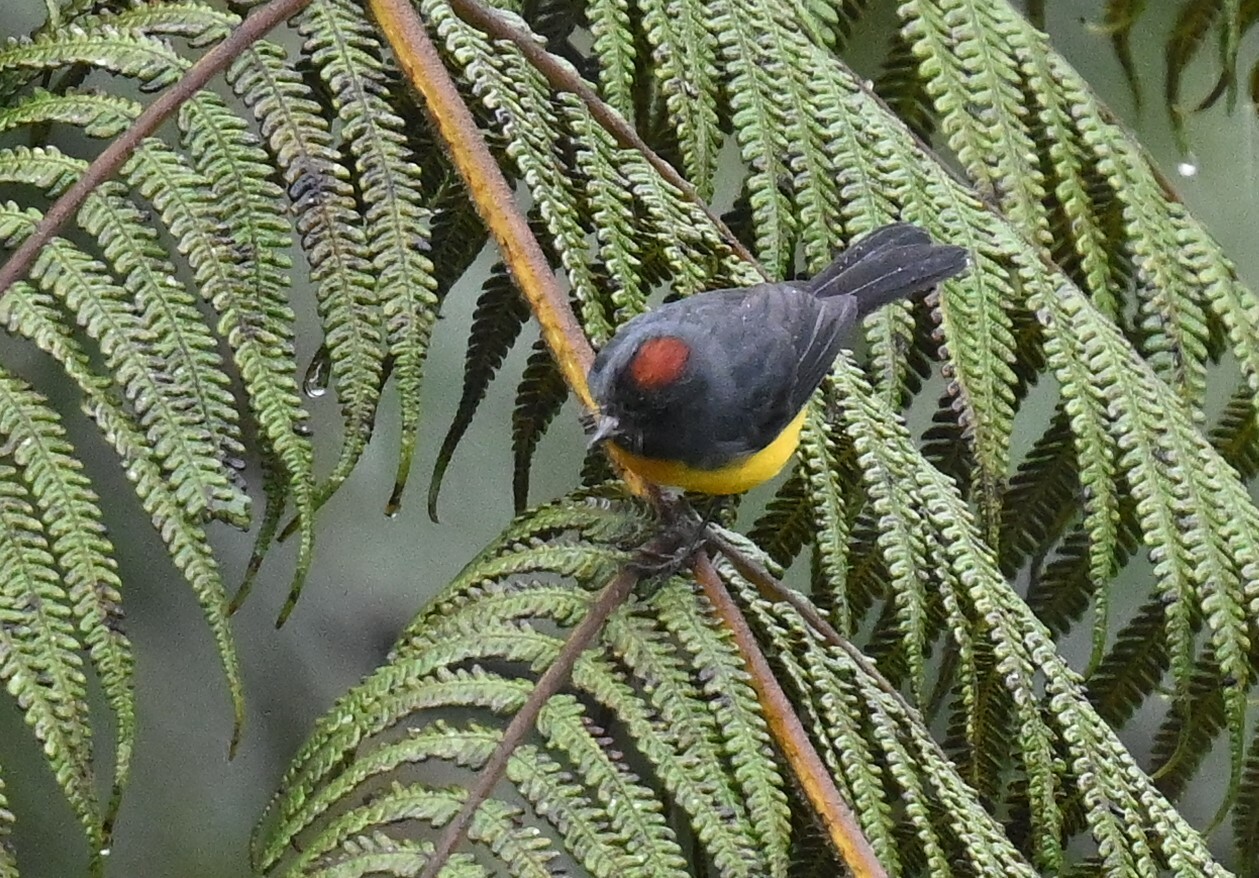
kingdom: Animalia
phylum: Chordata
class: Aves
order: Passeriformes
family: Parulidae
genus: Myioborus
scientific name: Myioborus miniatus
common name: Slate-throated redstart
